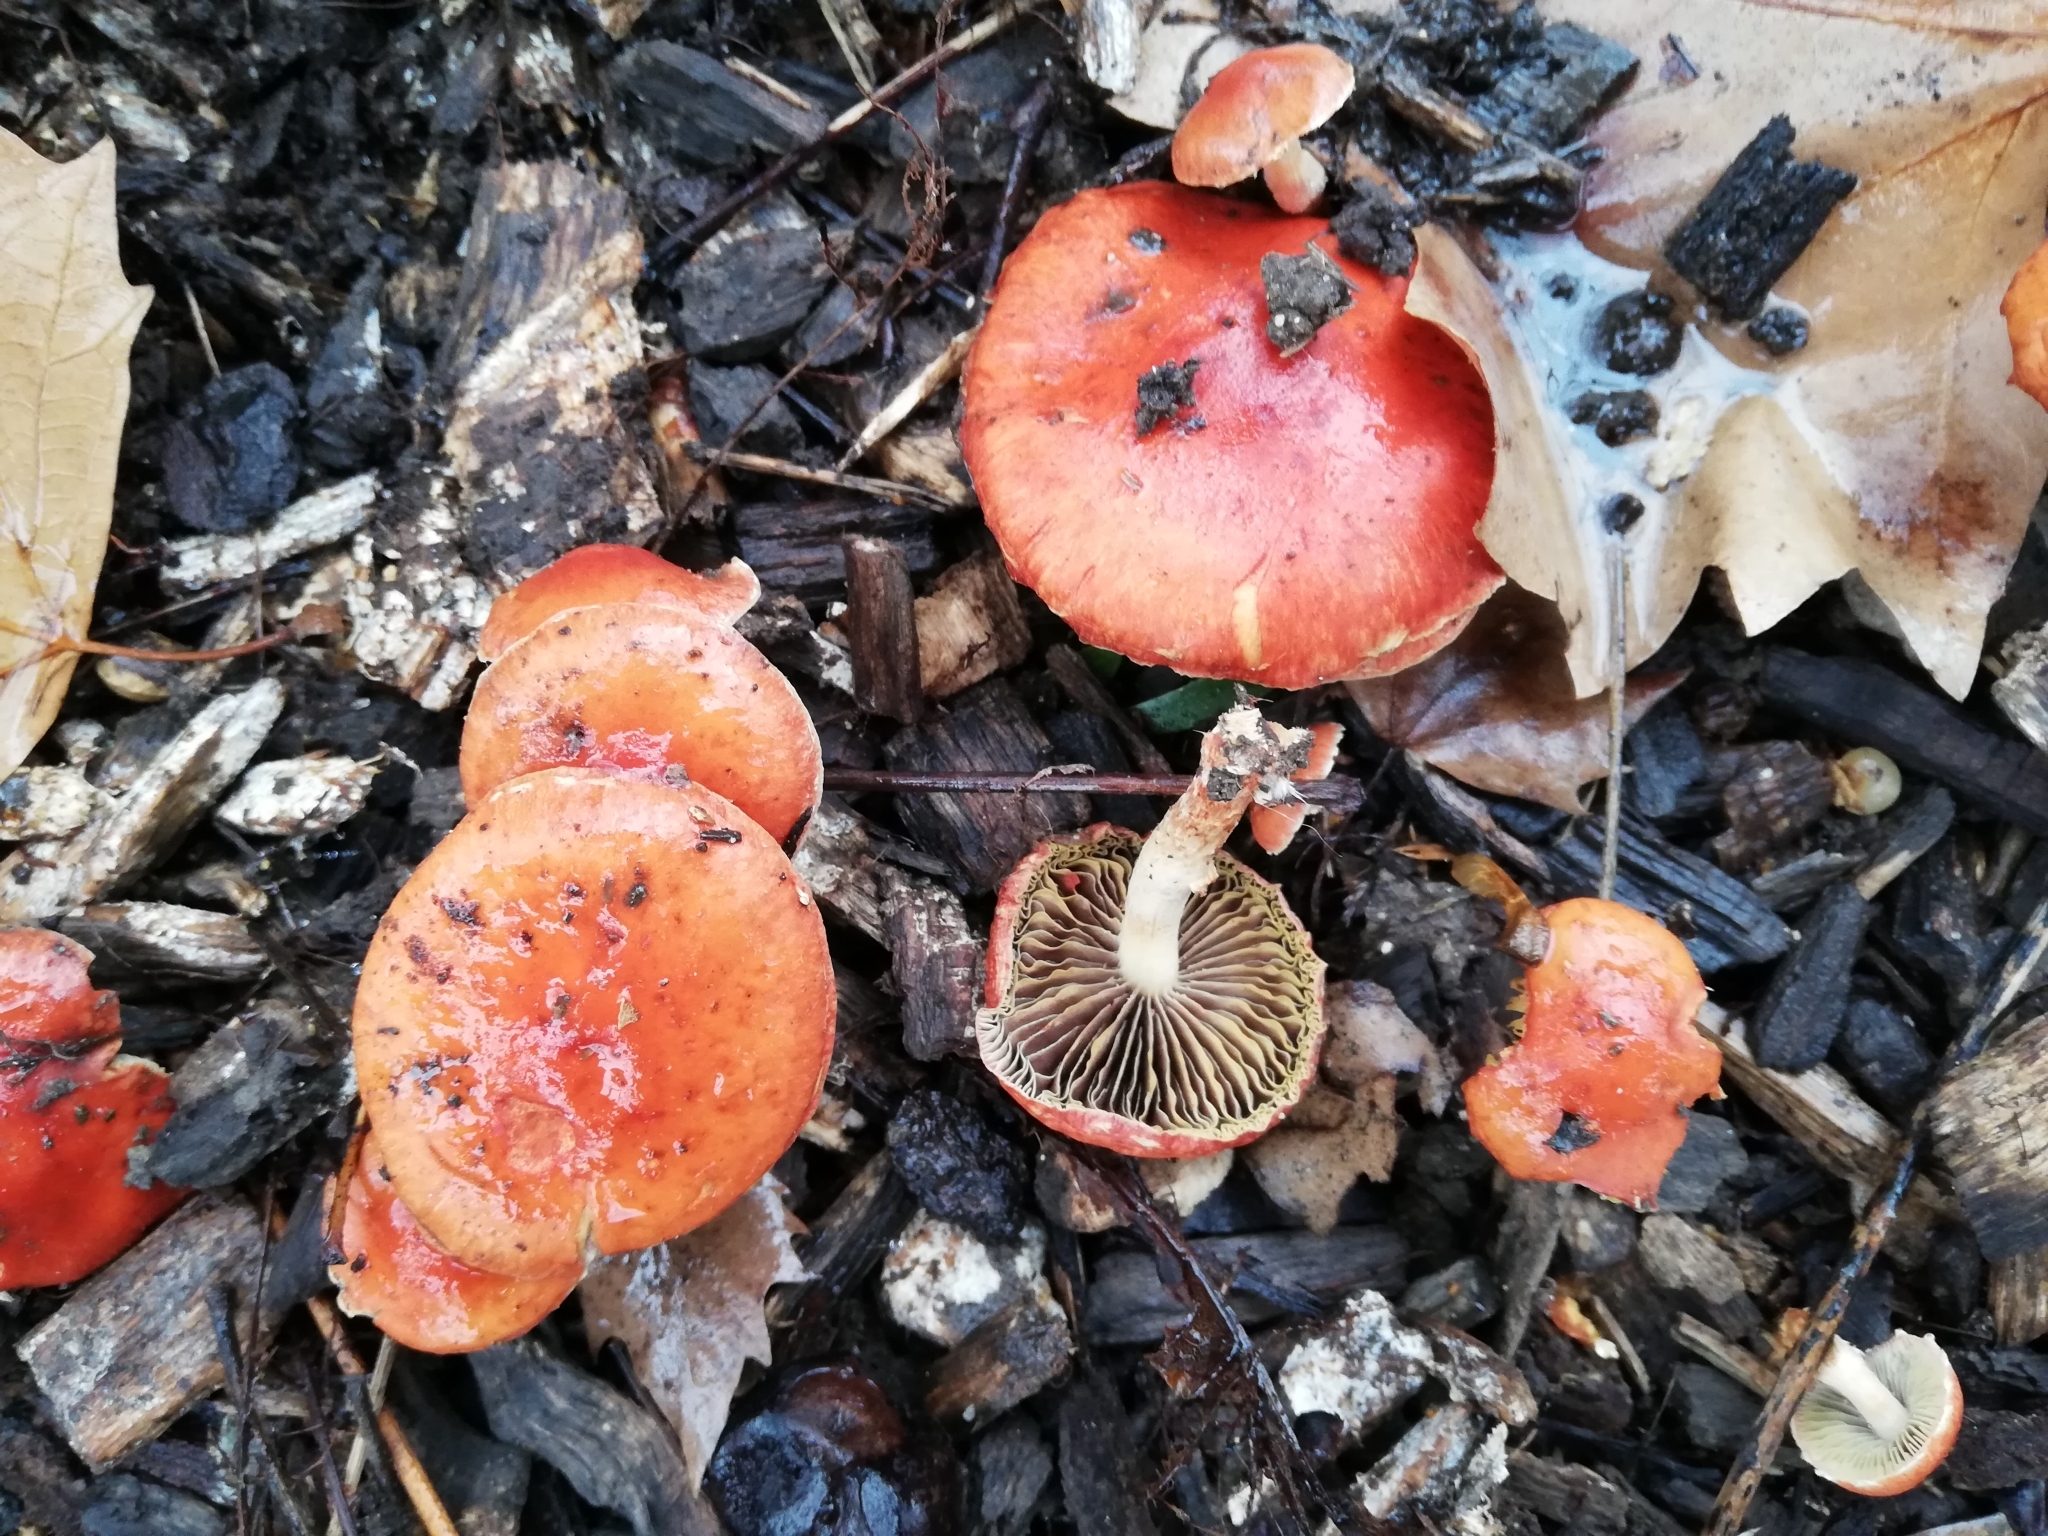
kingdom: Fungi
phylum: Basidiomycota
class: Agaricomycetes
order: Agaricales
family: Strophariaceae
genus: Leratiomyces
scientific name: Leratiomyces ceres
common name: Redlead roundhead
